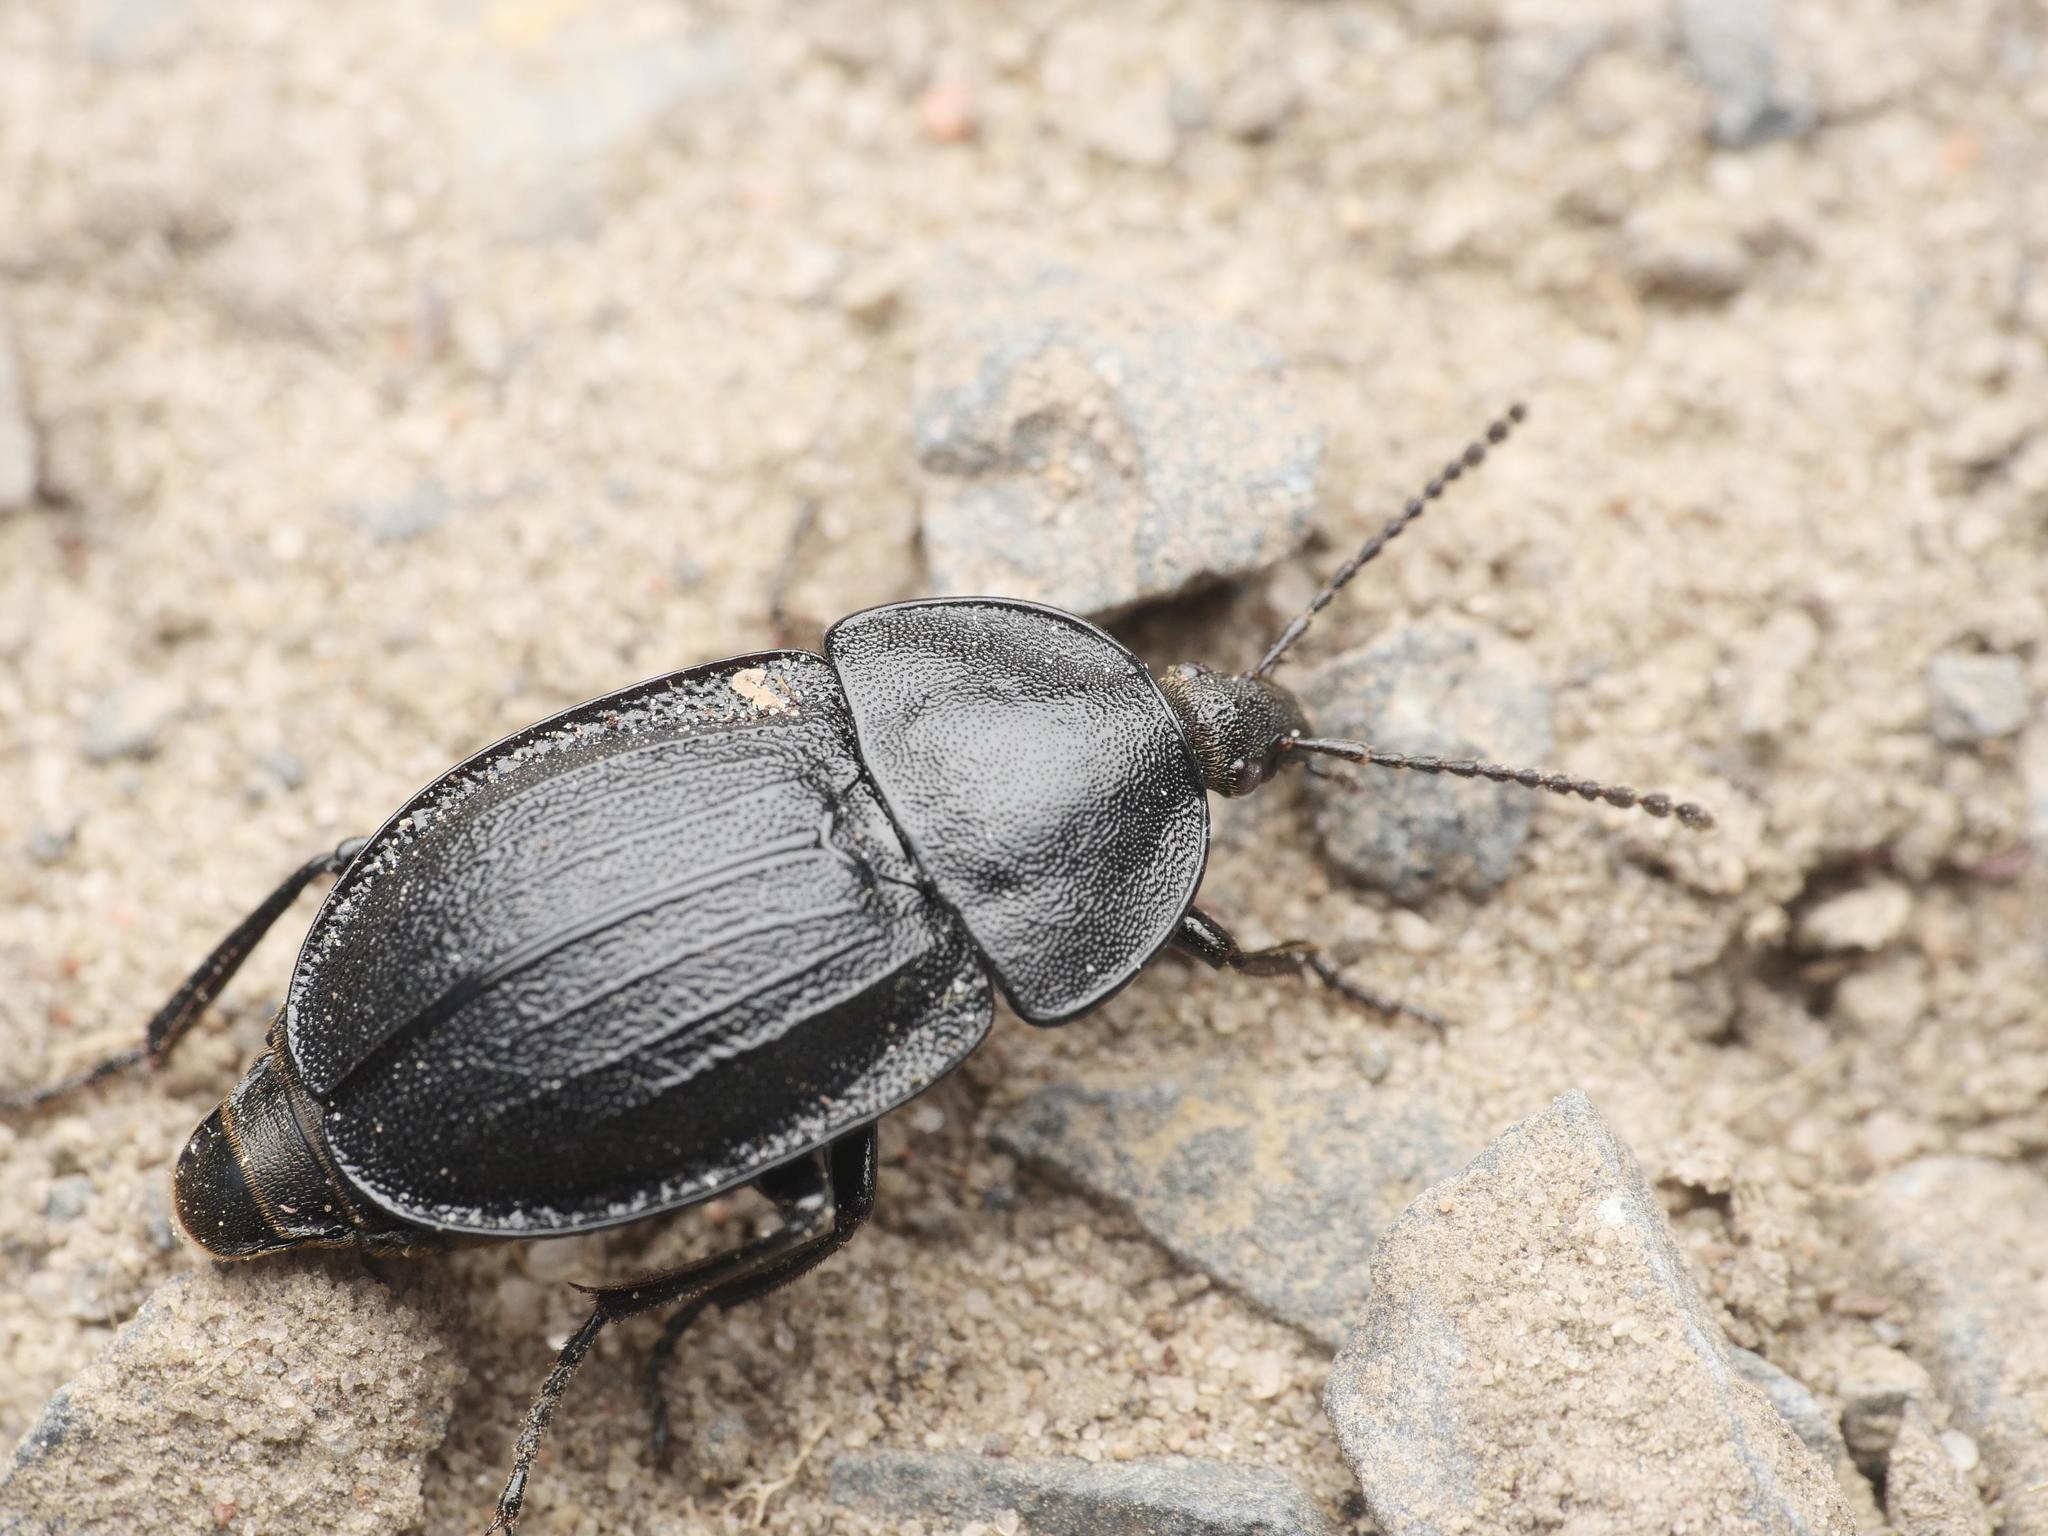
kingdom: Animalia
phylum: Arthropoda
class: Insecta
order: Coleoptera
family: Staphylinidae
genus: Silpha
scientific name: Silpha atrata
